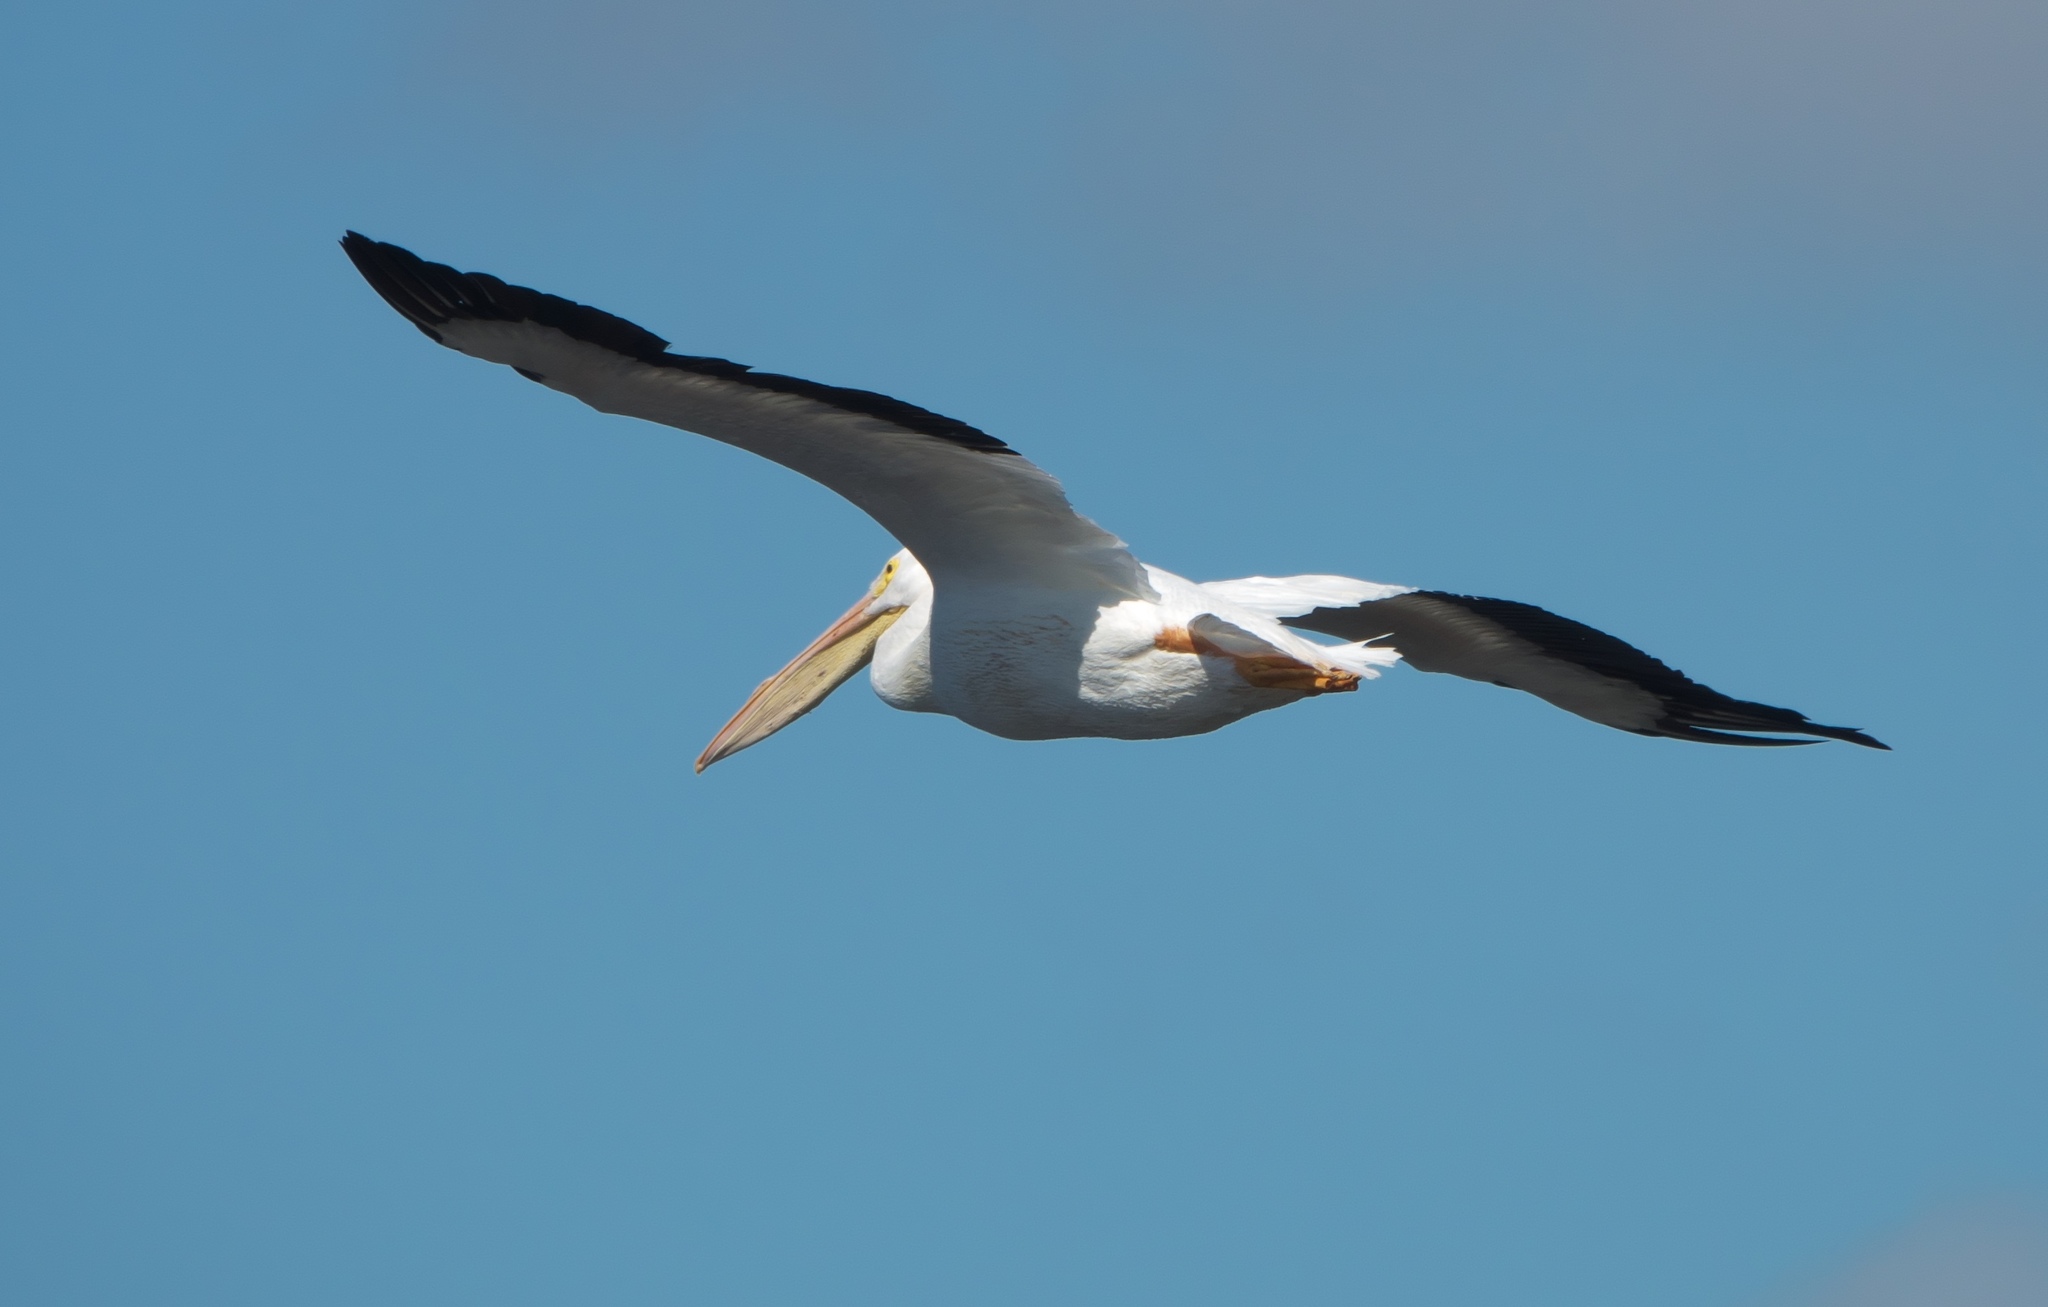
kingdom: Animalia
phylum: Chordata
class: Aves
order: Pelecaniformes
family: Pelecanidae
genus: Pelecanus
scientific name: Pelecanus erythrorhynchos
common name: American white pelican
